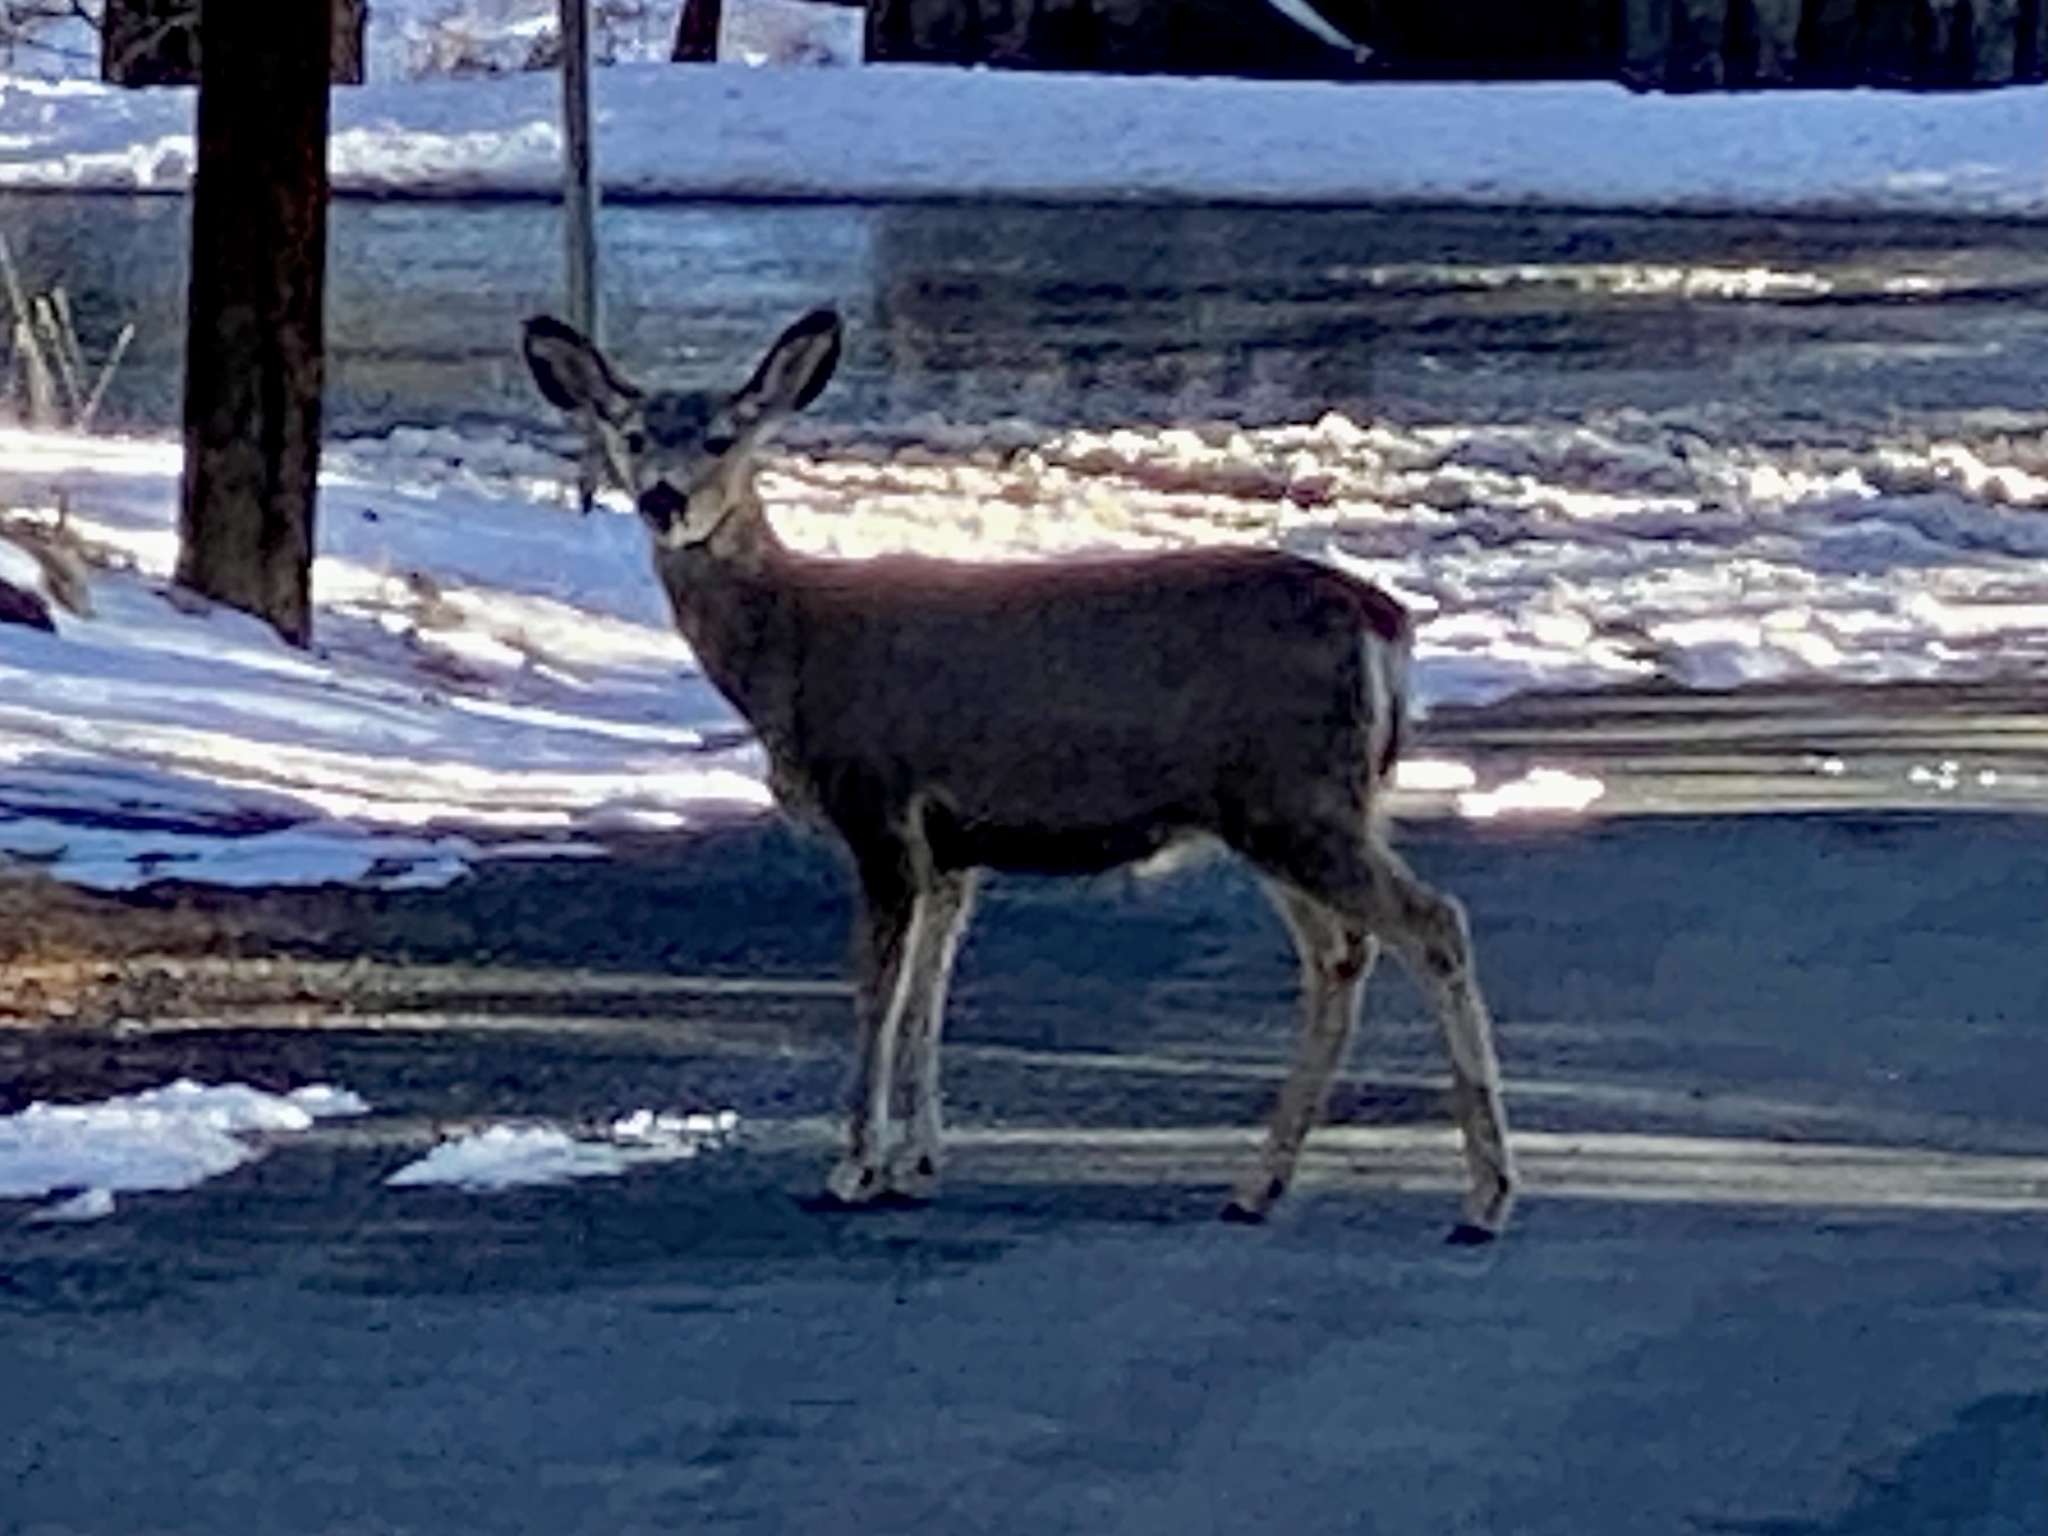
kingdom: Animalia
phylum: Chordata
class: Mammalia
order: Artiodactyla
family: Cervidae
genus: Odocoileus
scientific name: Odocoileus hemionus
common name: Mule deer
